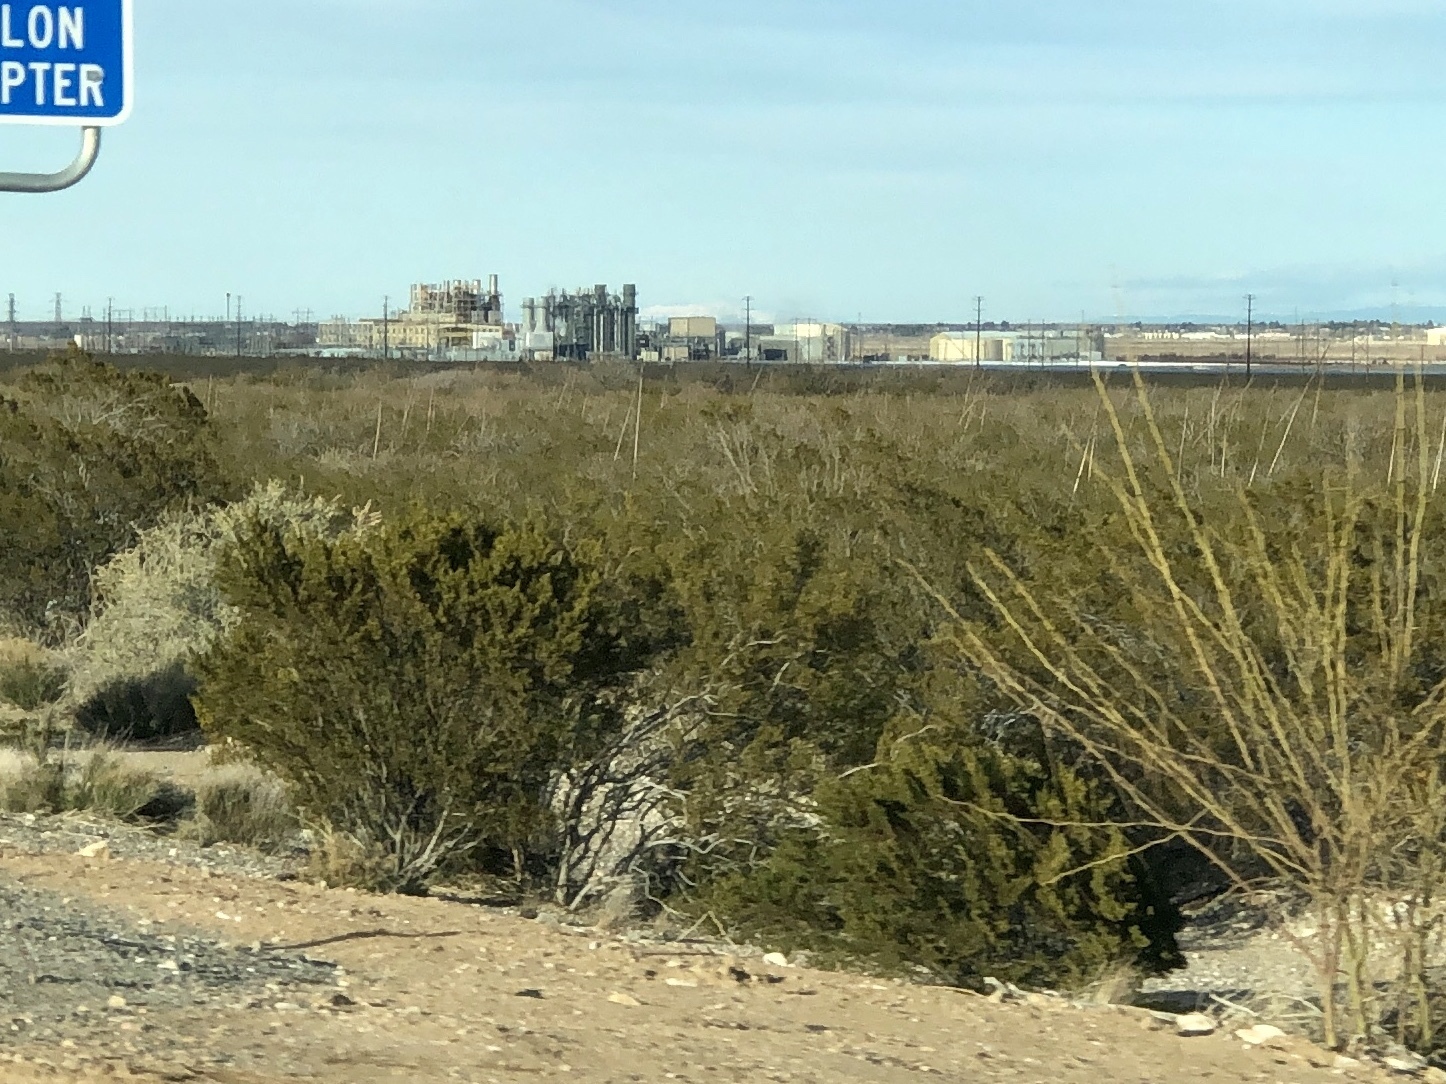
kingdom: Plantae
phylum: Tracheophyta
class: Magnoliopsida
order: Zygophyllales
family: Zygophyllaceae
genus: Larrea
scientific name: Larrea tridentata
